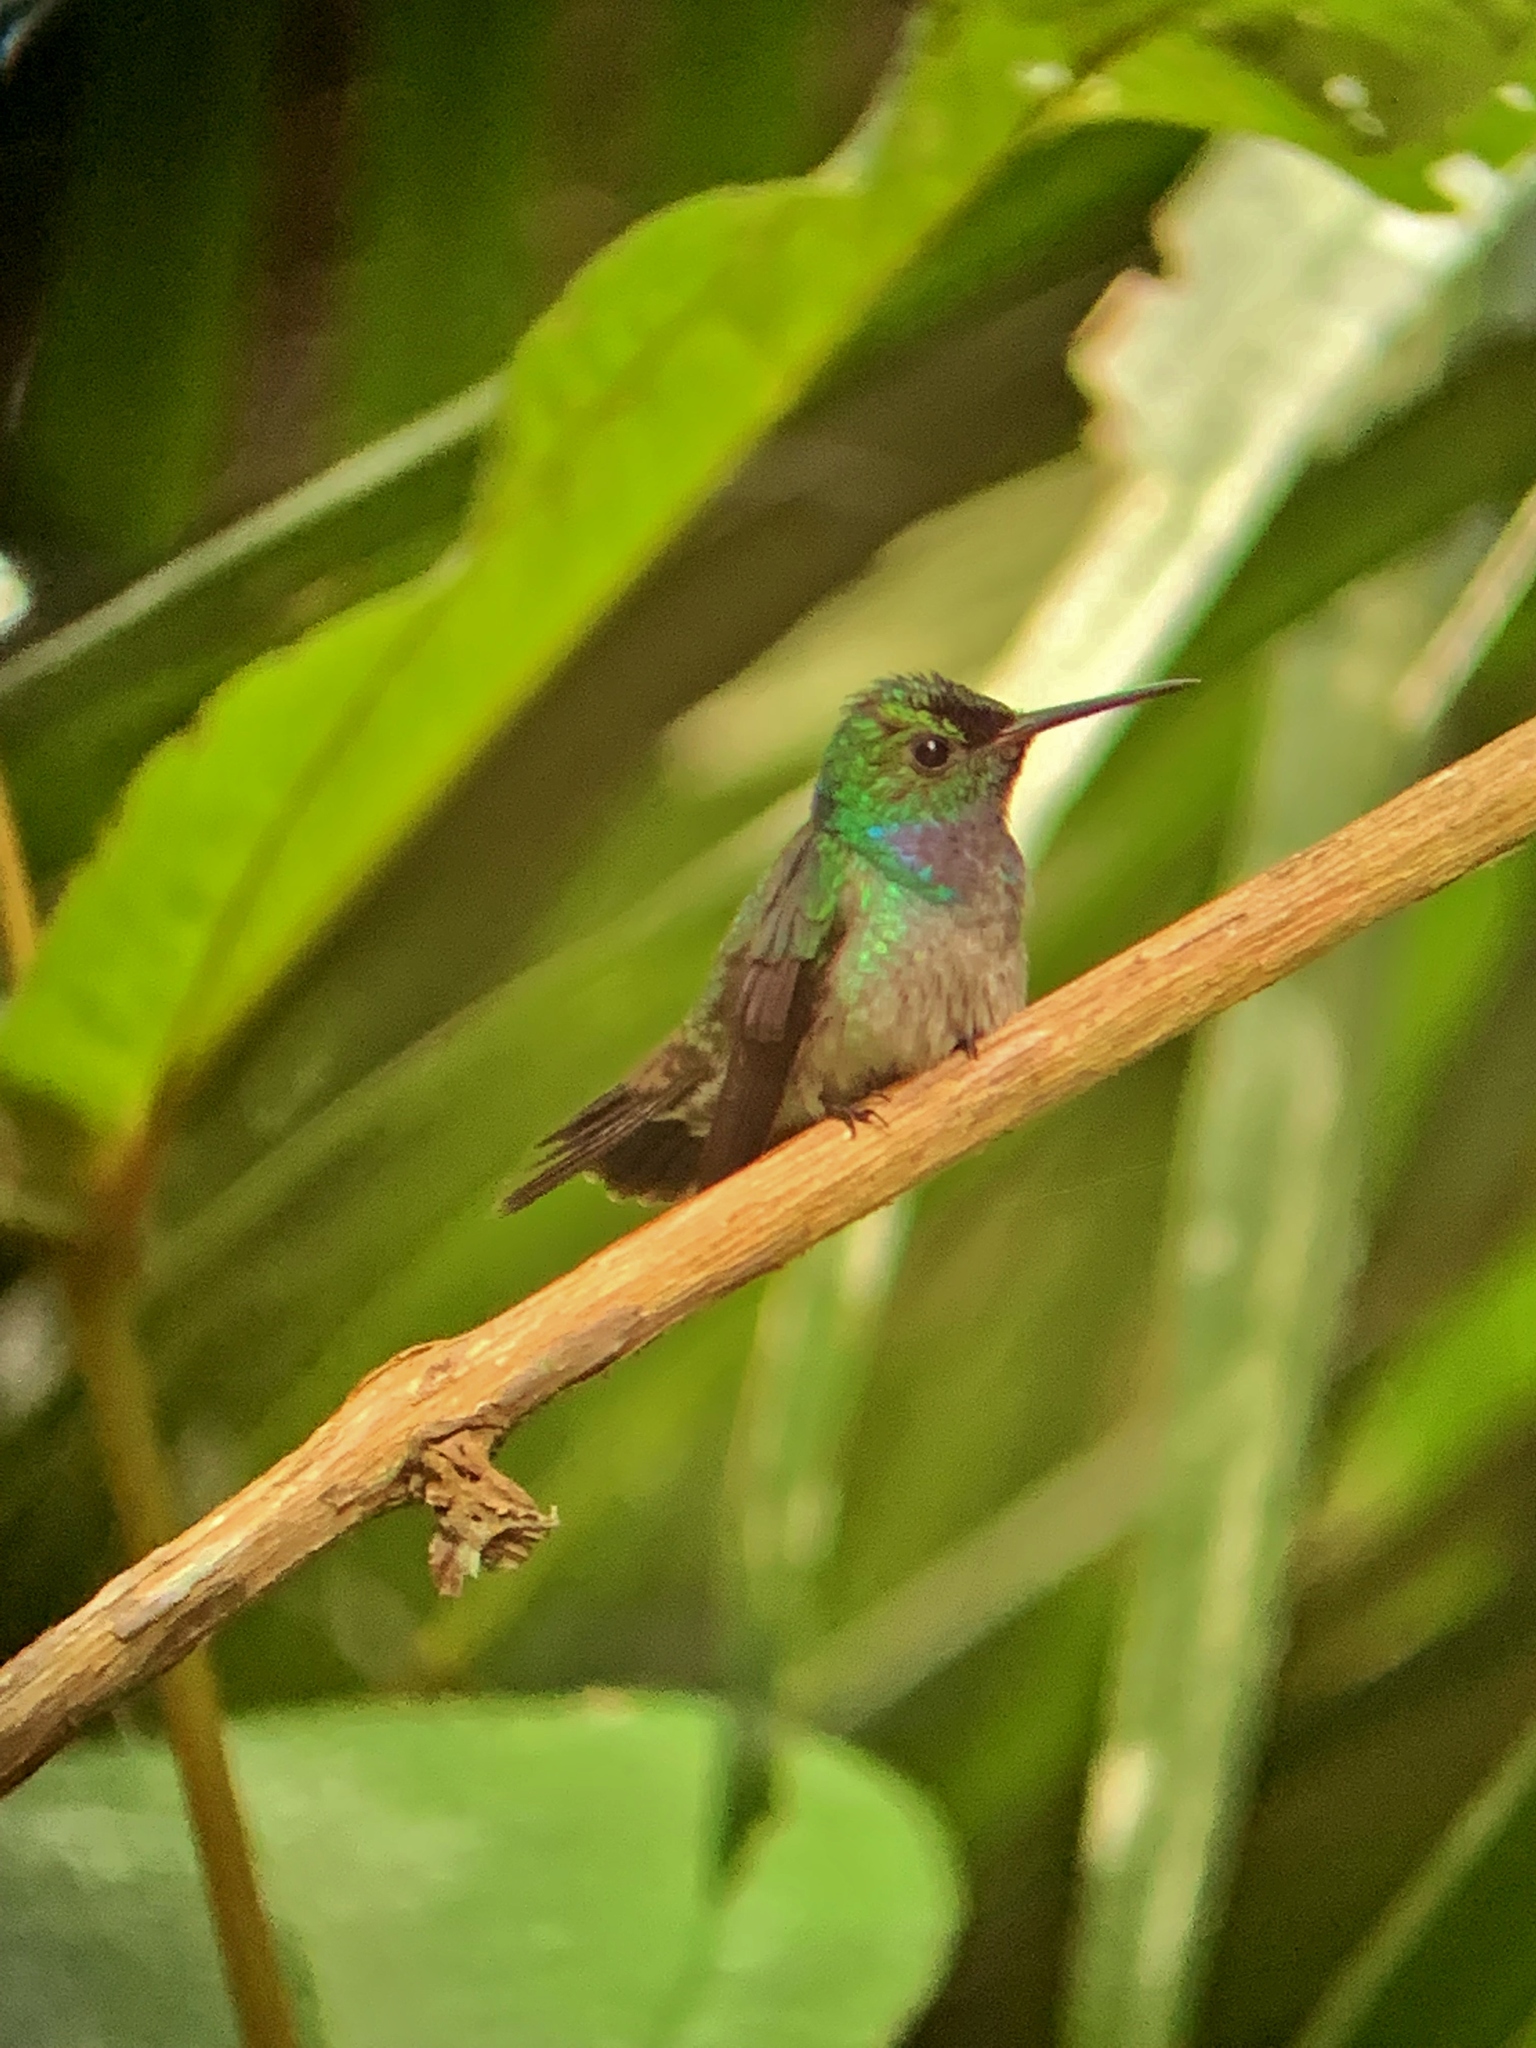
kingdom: Animalia
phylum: Chordata
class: Aves
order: Apodiformes
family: Trochilidae
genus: Polyerata
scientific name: Polyerata amabilis
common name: Blue-chested hummingbird
